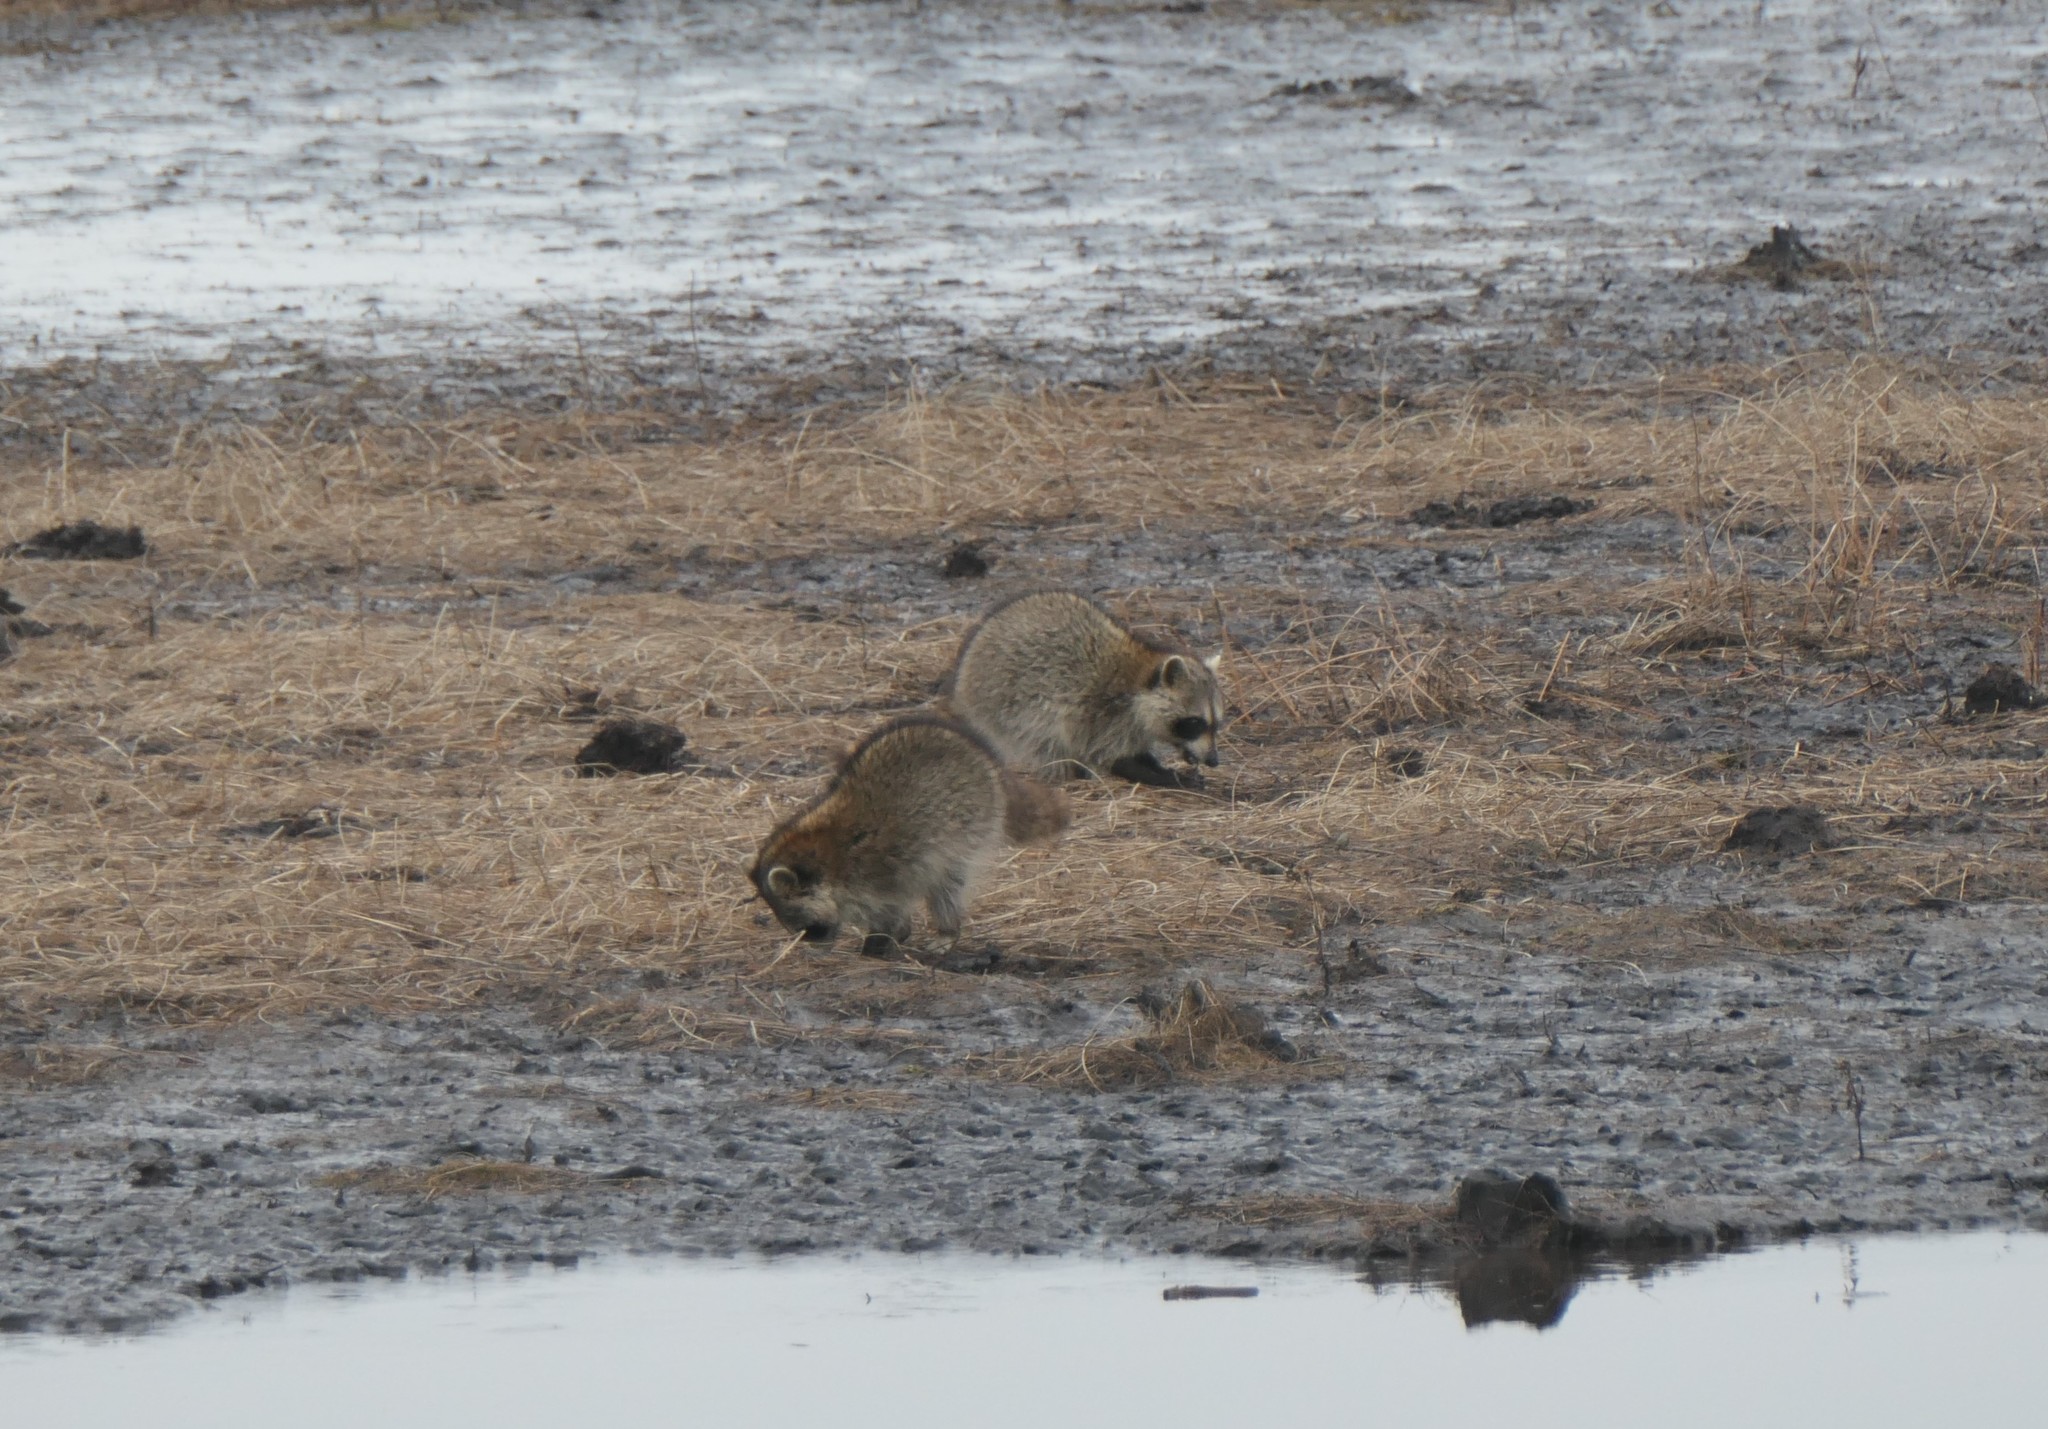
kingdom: Animalia
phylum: Chordata
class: Mammalia
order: Carnivora
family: Procyonidae
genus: Procyon
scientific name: Procyon lotor
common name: Raccoon
